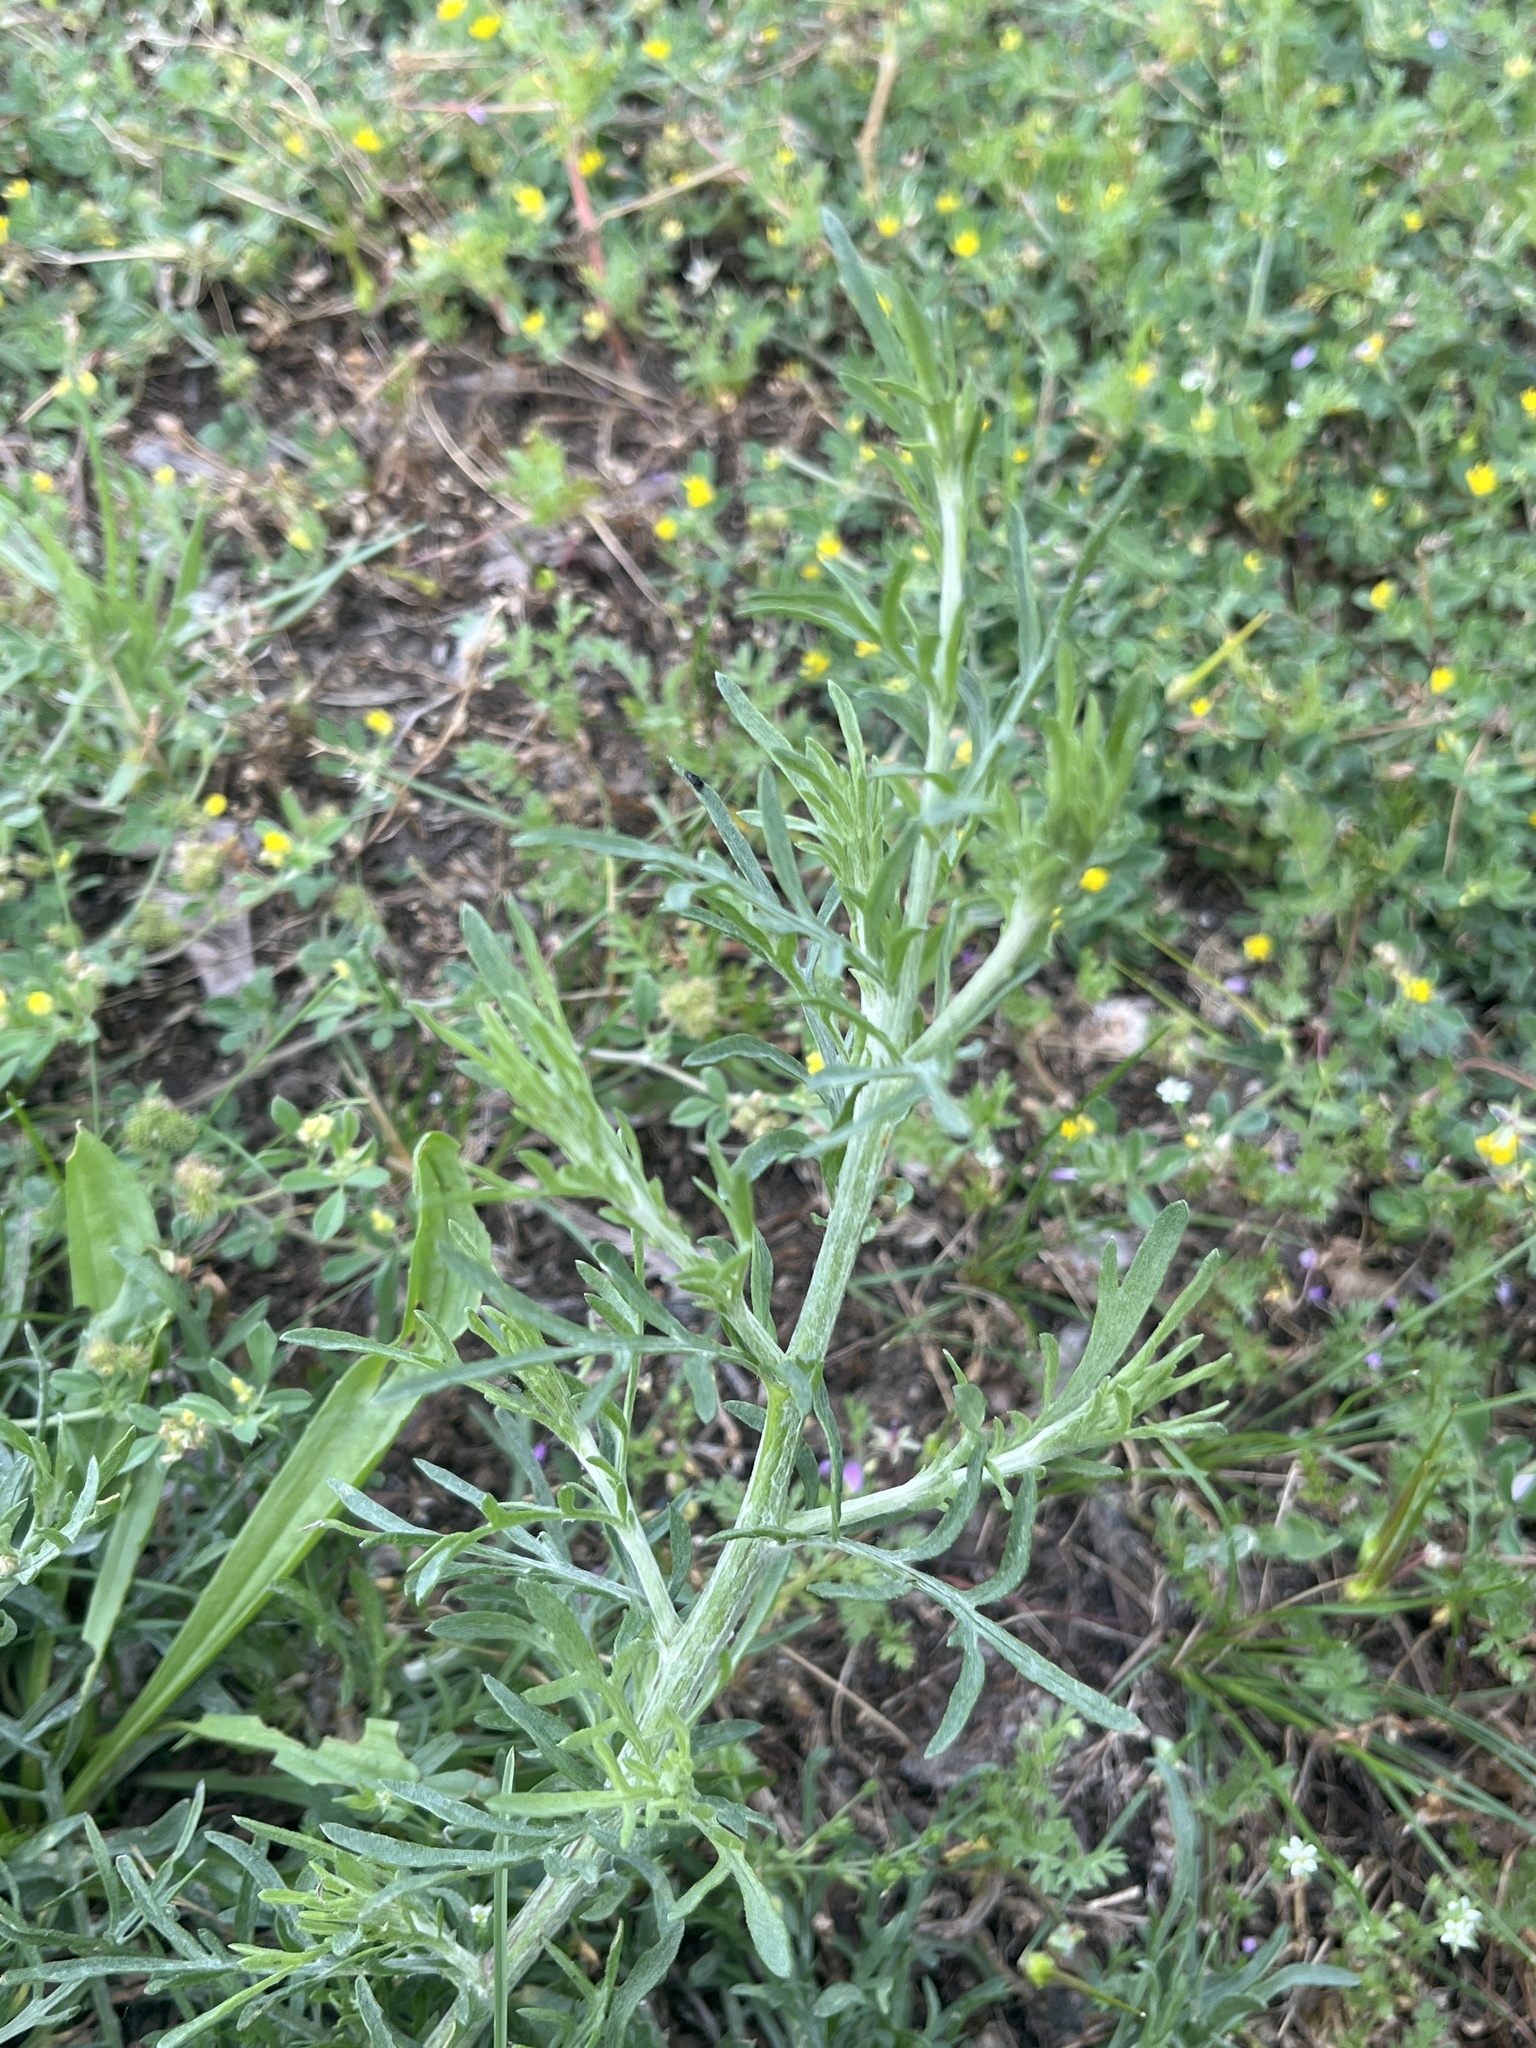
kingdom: Plantae
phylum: Tracheophyta
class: Magnoliopsida
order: Asterales
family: Asteraceae
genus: Centaurea
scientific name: Centaurea stoebe
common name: Spotted knapweed
